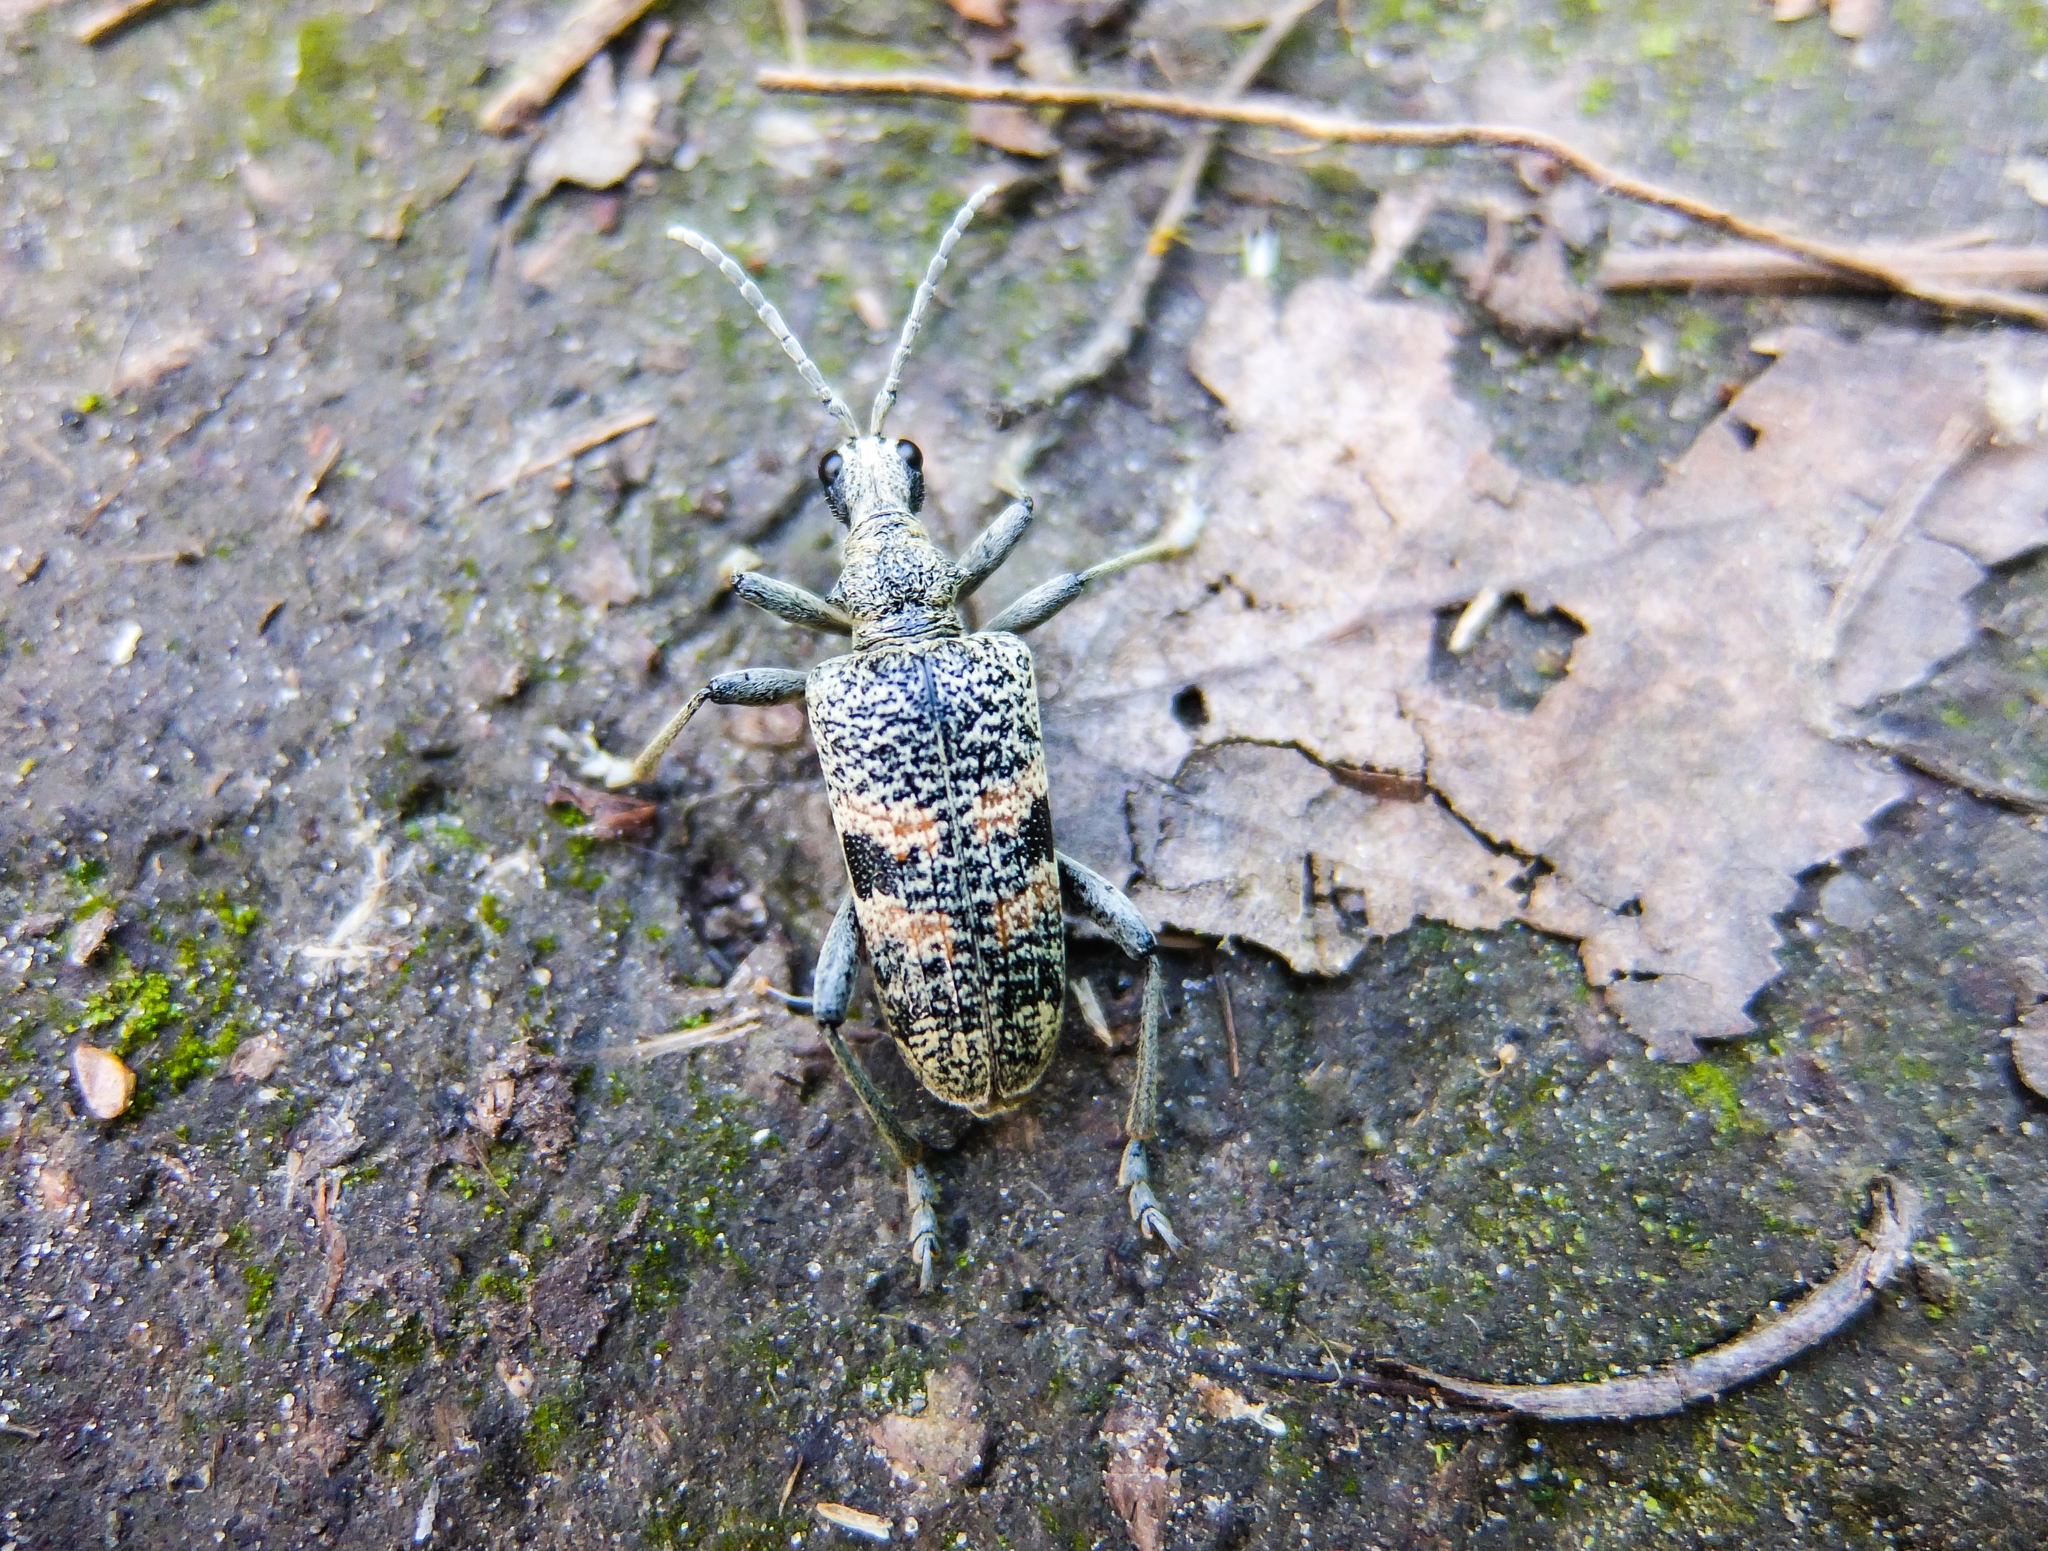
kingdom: Animalia
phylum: Arthropoda
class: Insecta
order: Coleoptera
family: Cerambycidae
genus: Rhagium
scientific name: Rhagium mordax
